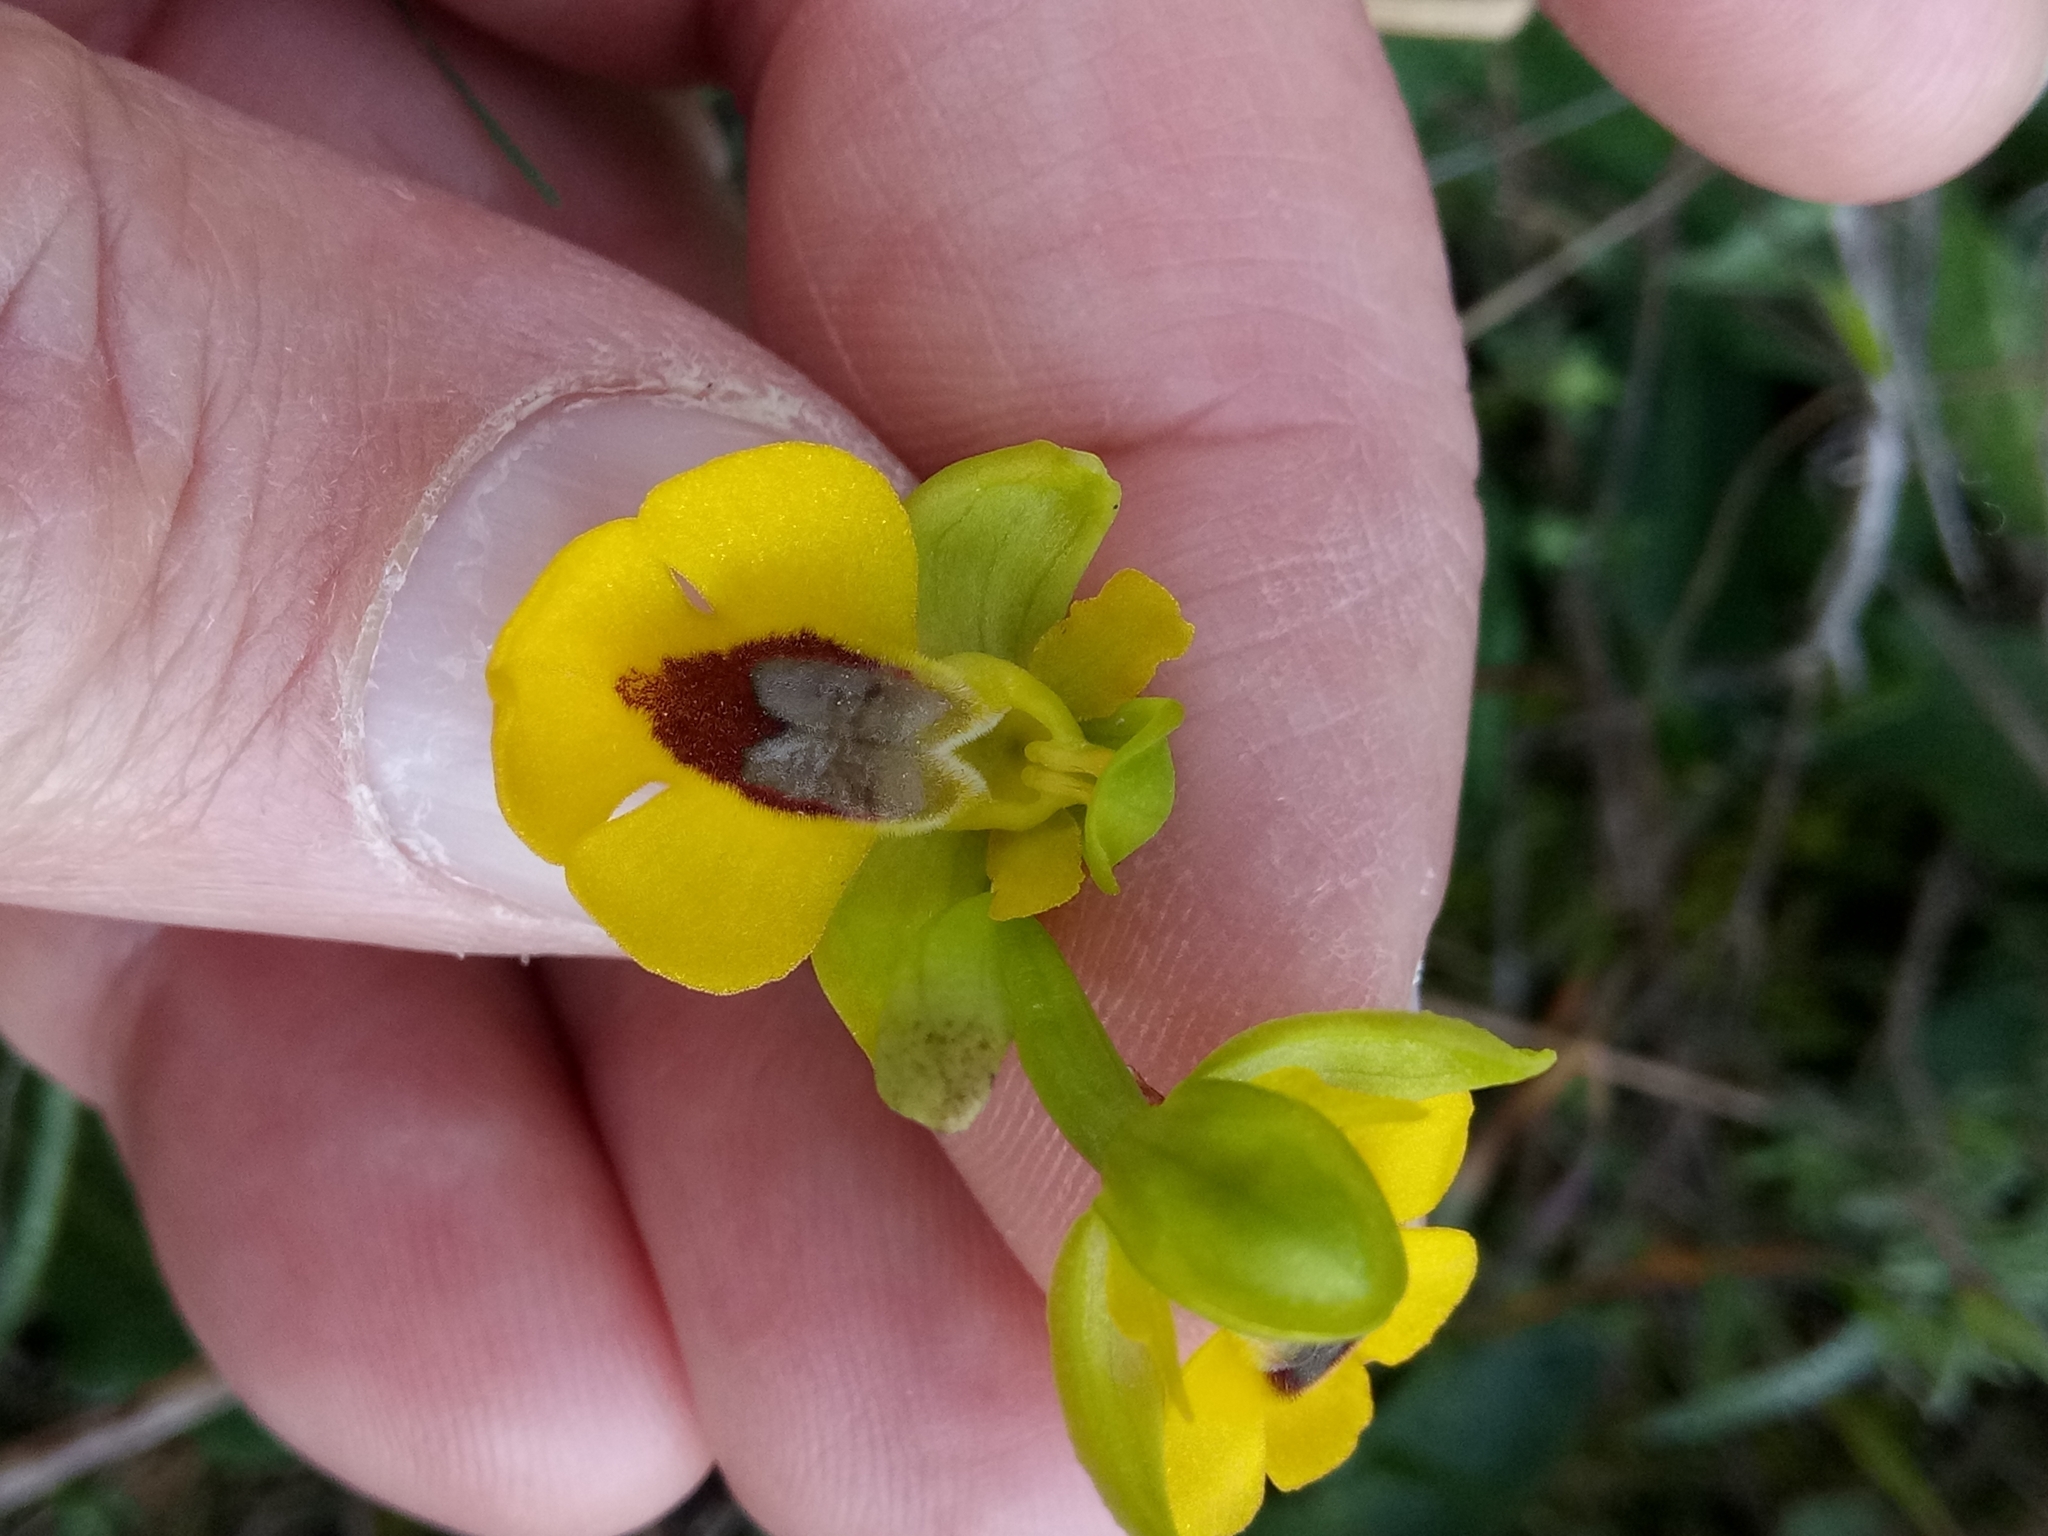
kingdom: Plantae
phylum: Tracheophyta
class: Liliopsida
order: Asparagales
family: Orchidaceae
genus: Ophrys
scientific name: Ophrys lutea
